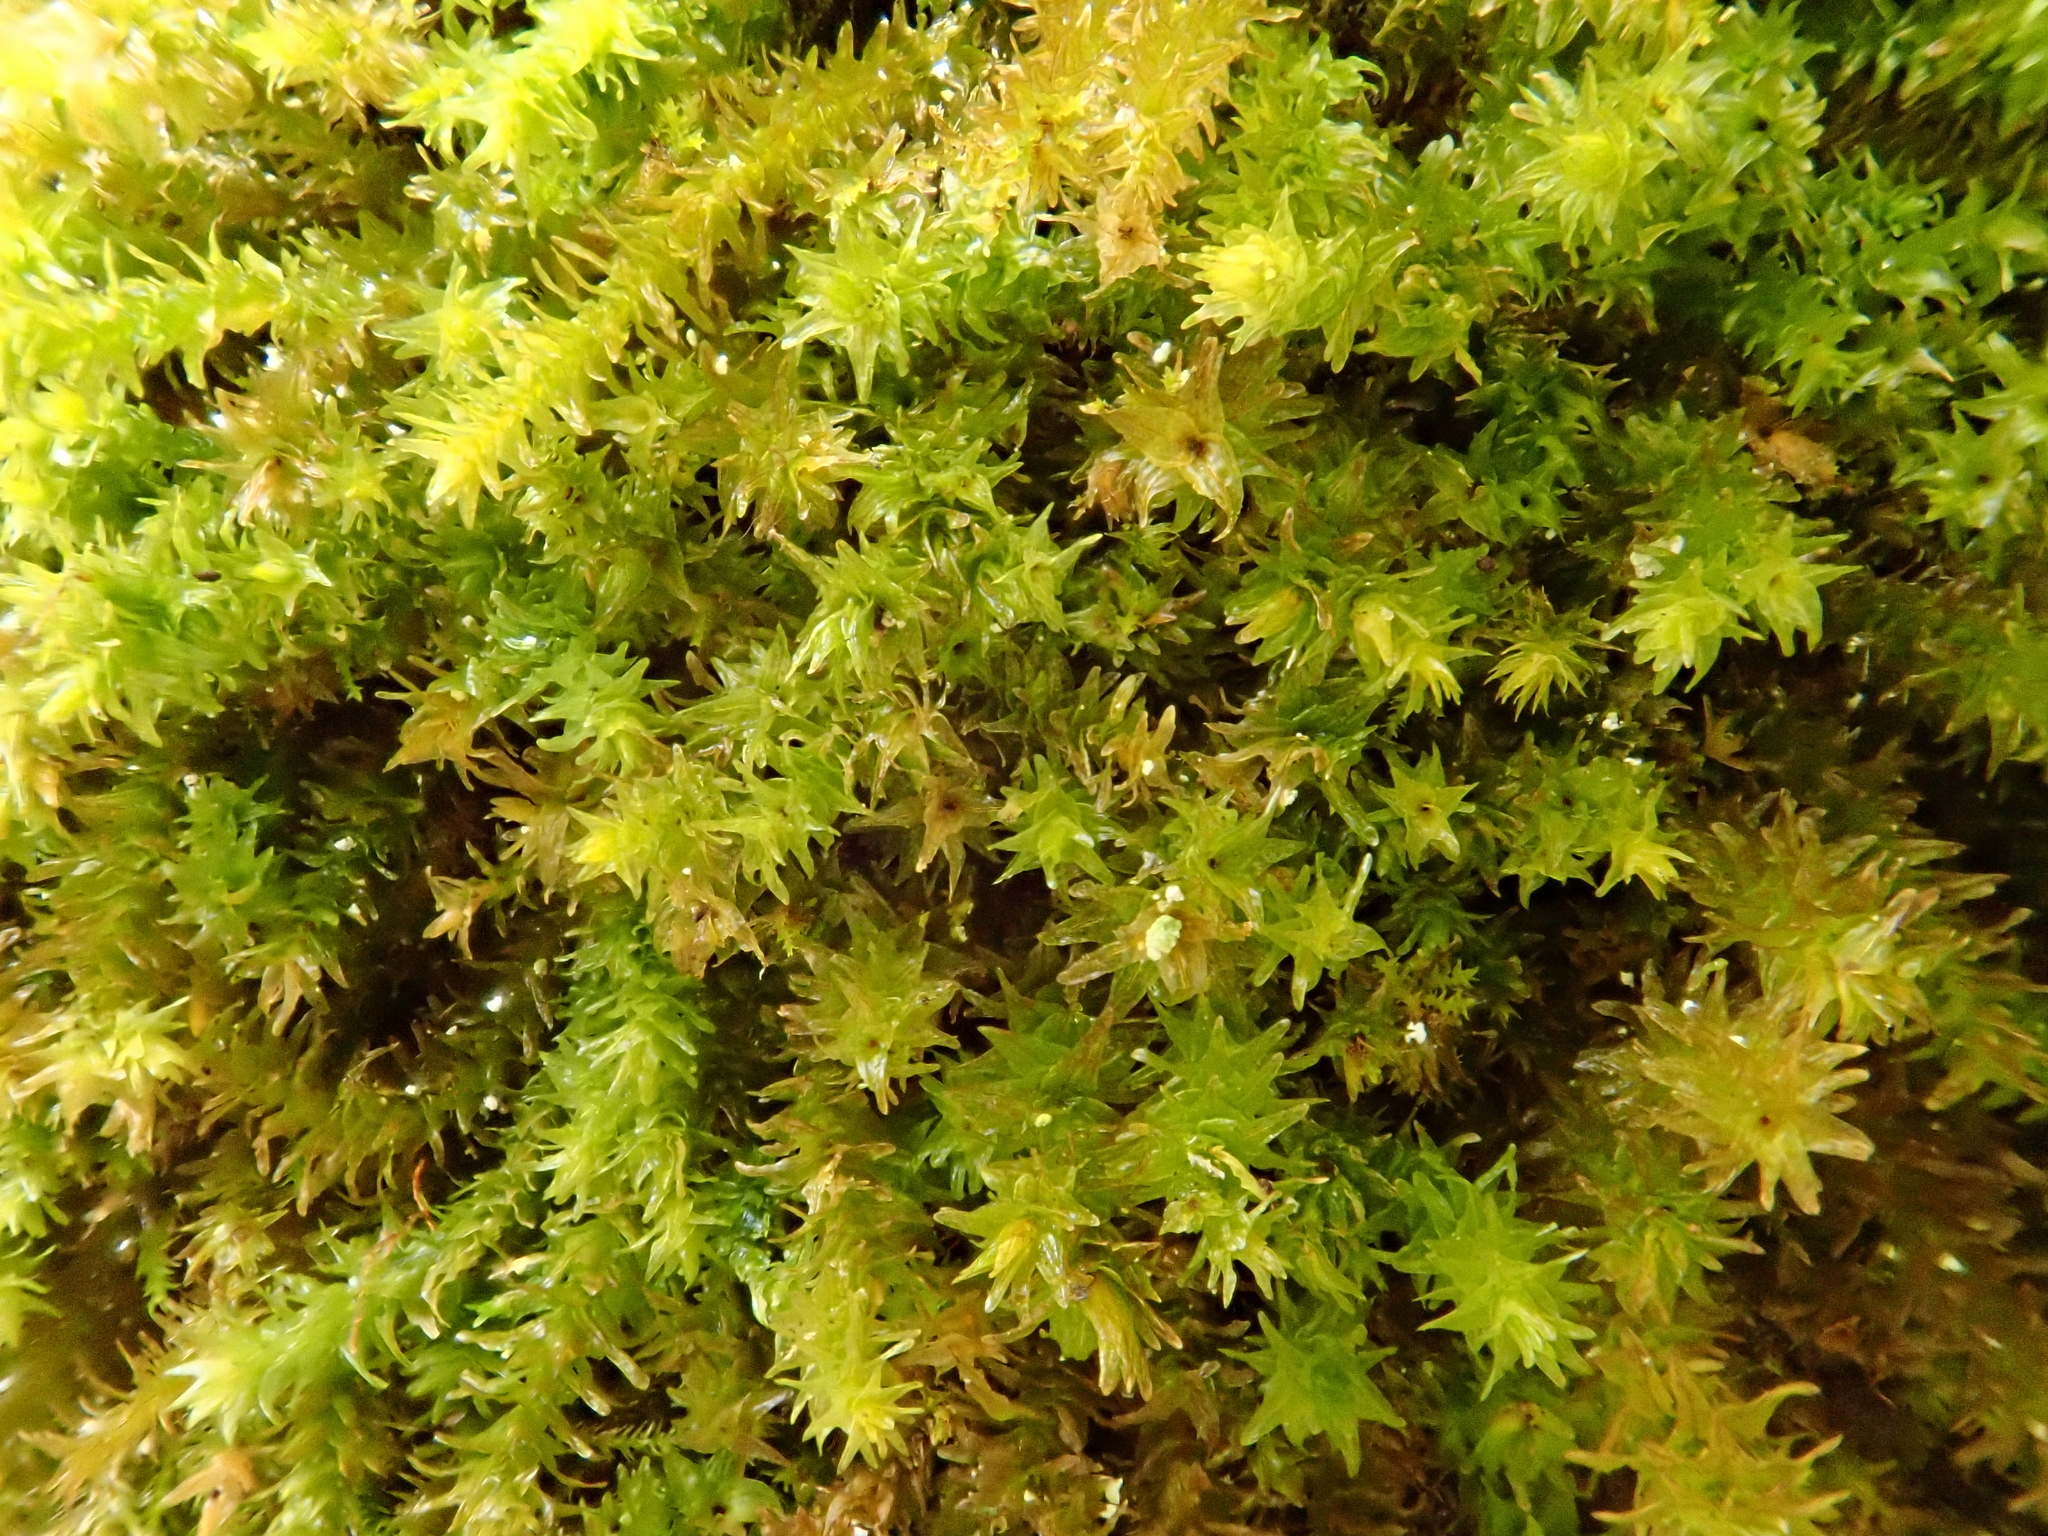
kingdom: Plantae
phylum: Bryophyta
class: Bryopsida
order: Hypnales
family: Anomodontaceae
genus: Anomodon
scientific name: Anomodon viticulosus
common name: Tall anomodon
